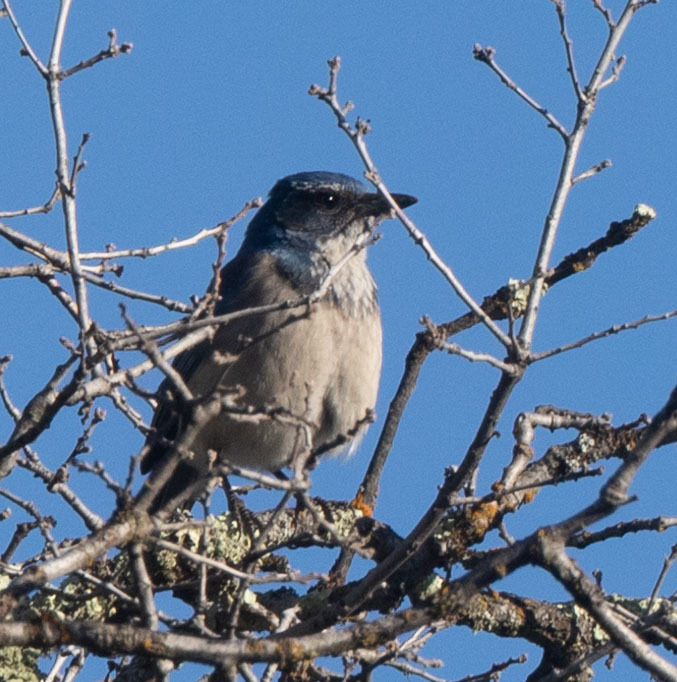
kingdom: Animalia
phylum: Chordata
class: Aves
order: Passeriformes
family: Corvidae
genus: Aphelocoma
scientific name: Aphelocoma californica
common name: California scrub-jay
